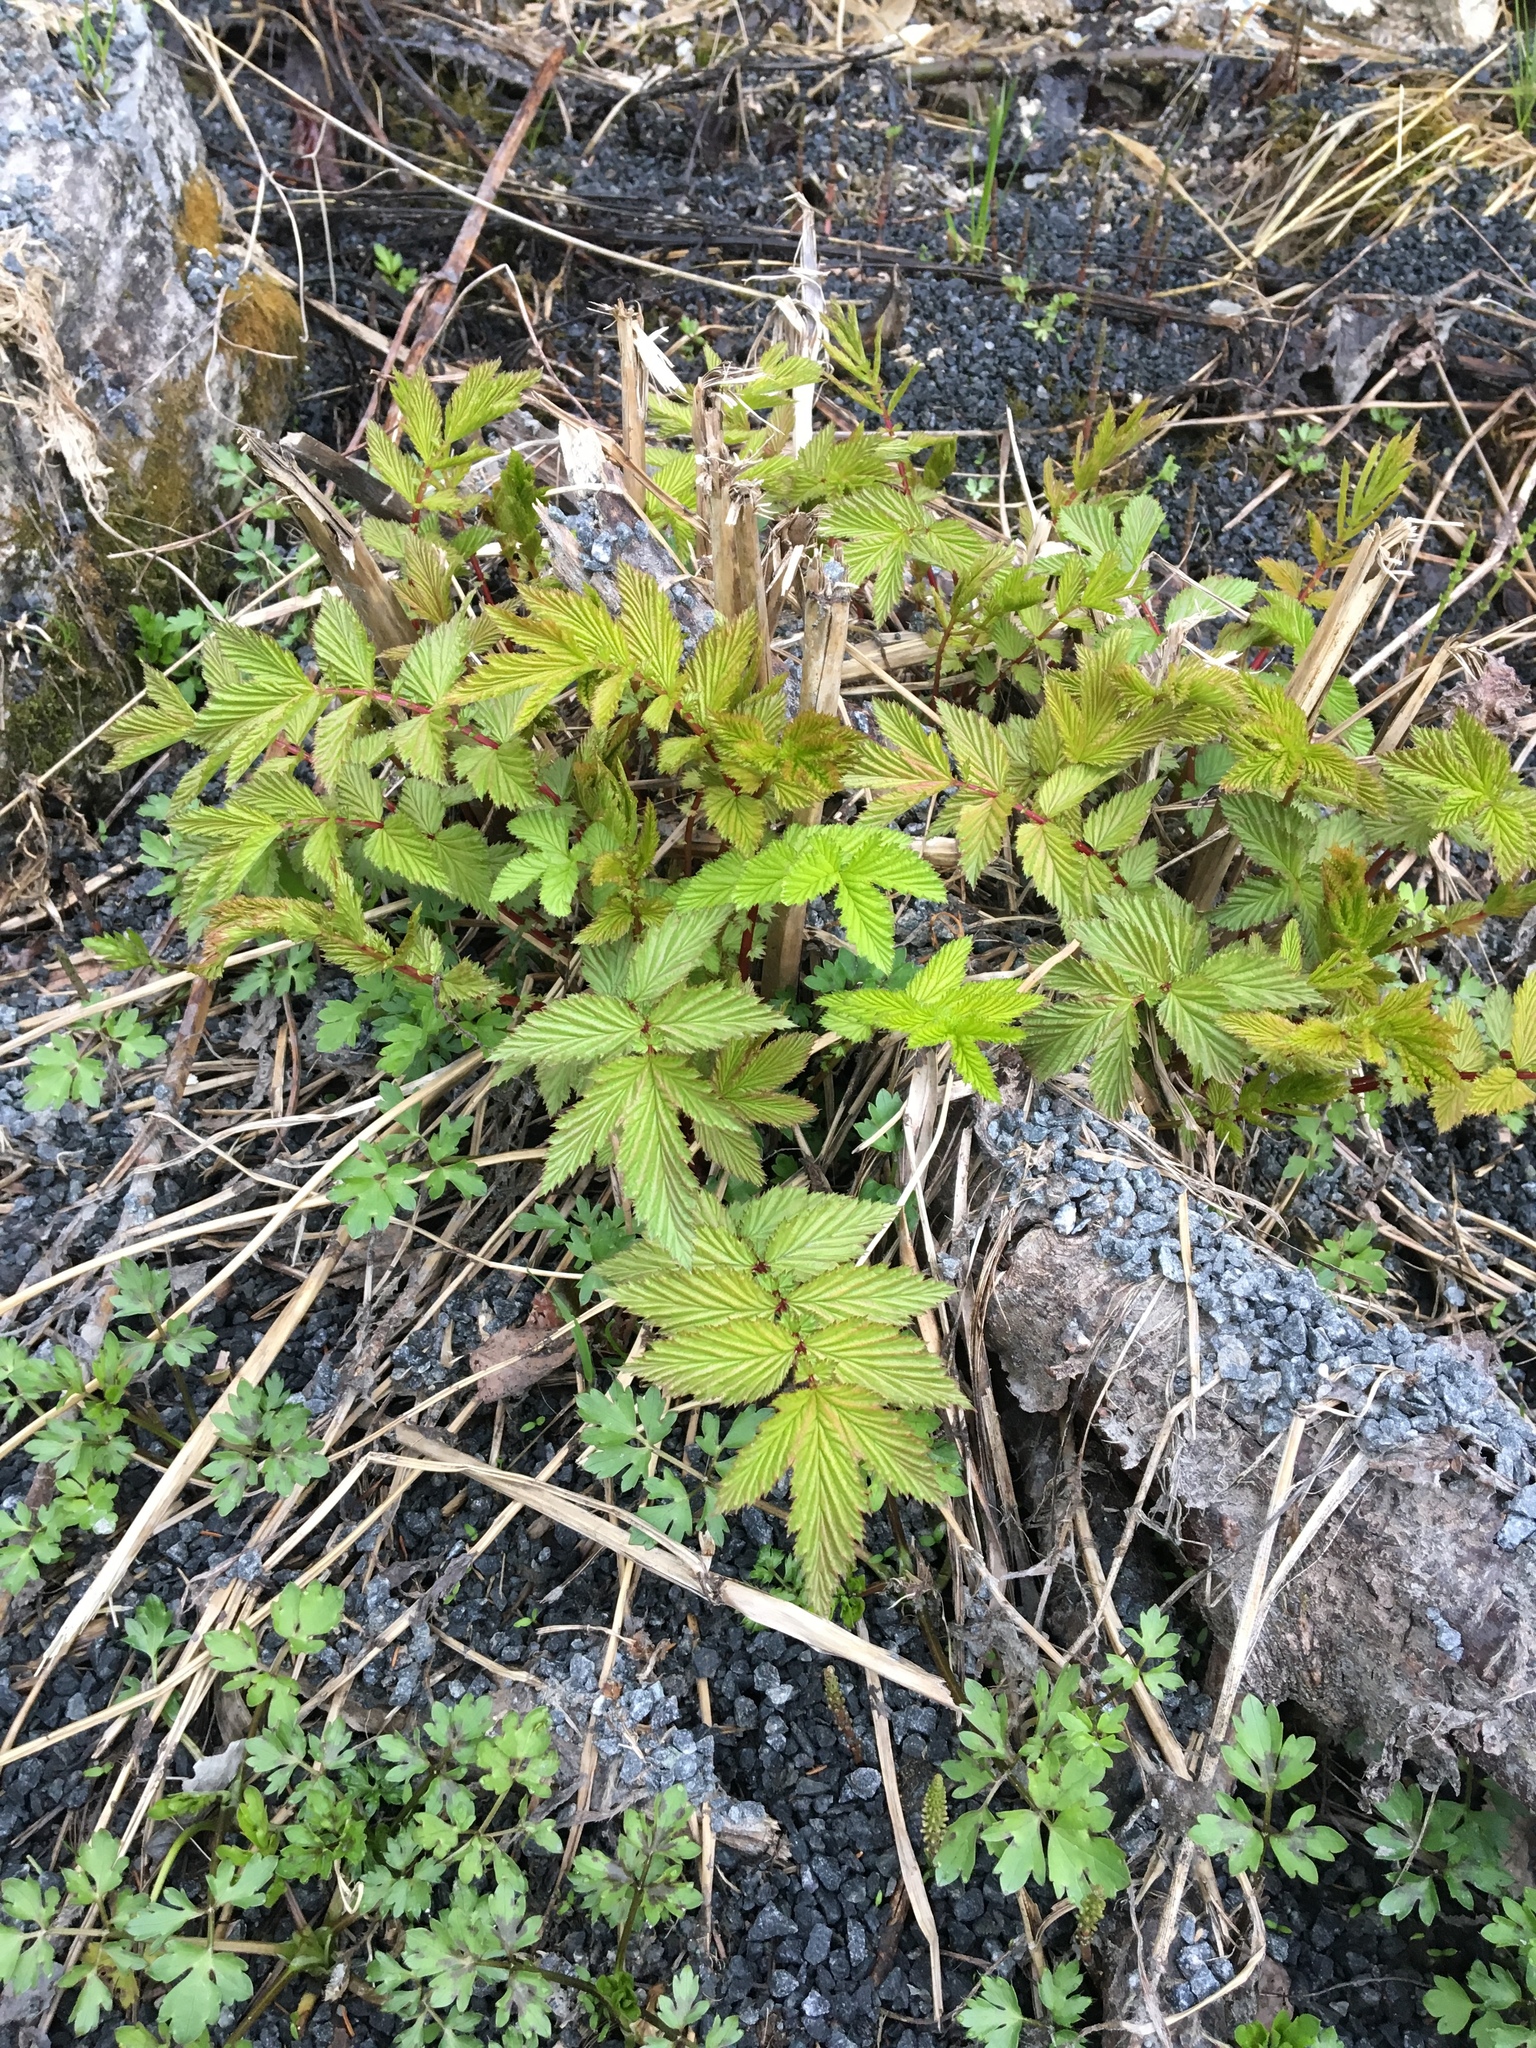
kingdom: Plantae
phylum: Tracheophyta
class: Magnoliopsida
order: Rosales
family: Rosaceae
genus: Filipendula
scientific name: Filipendula ulmaria
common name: Meadowsweet
